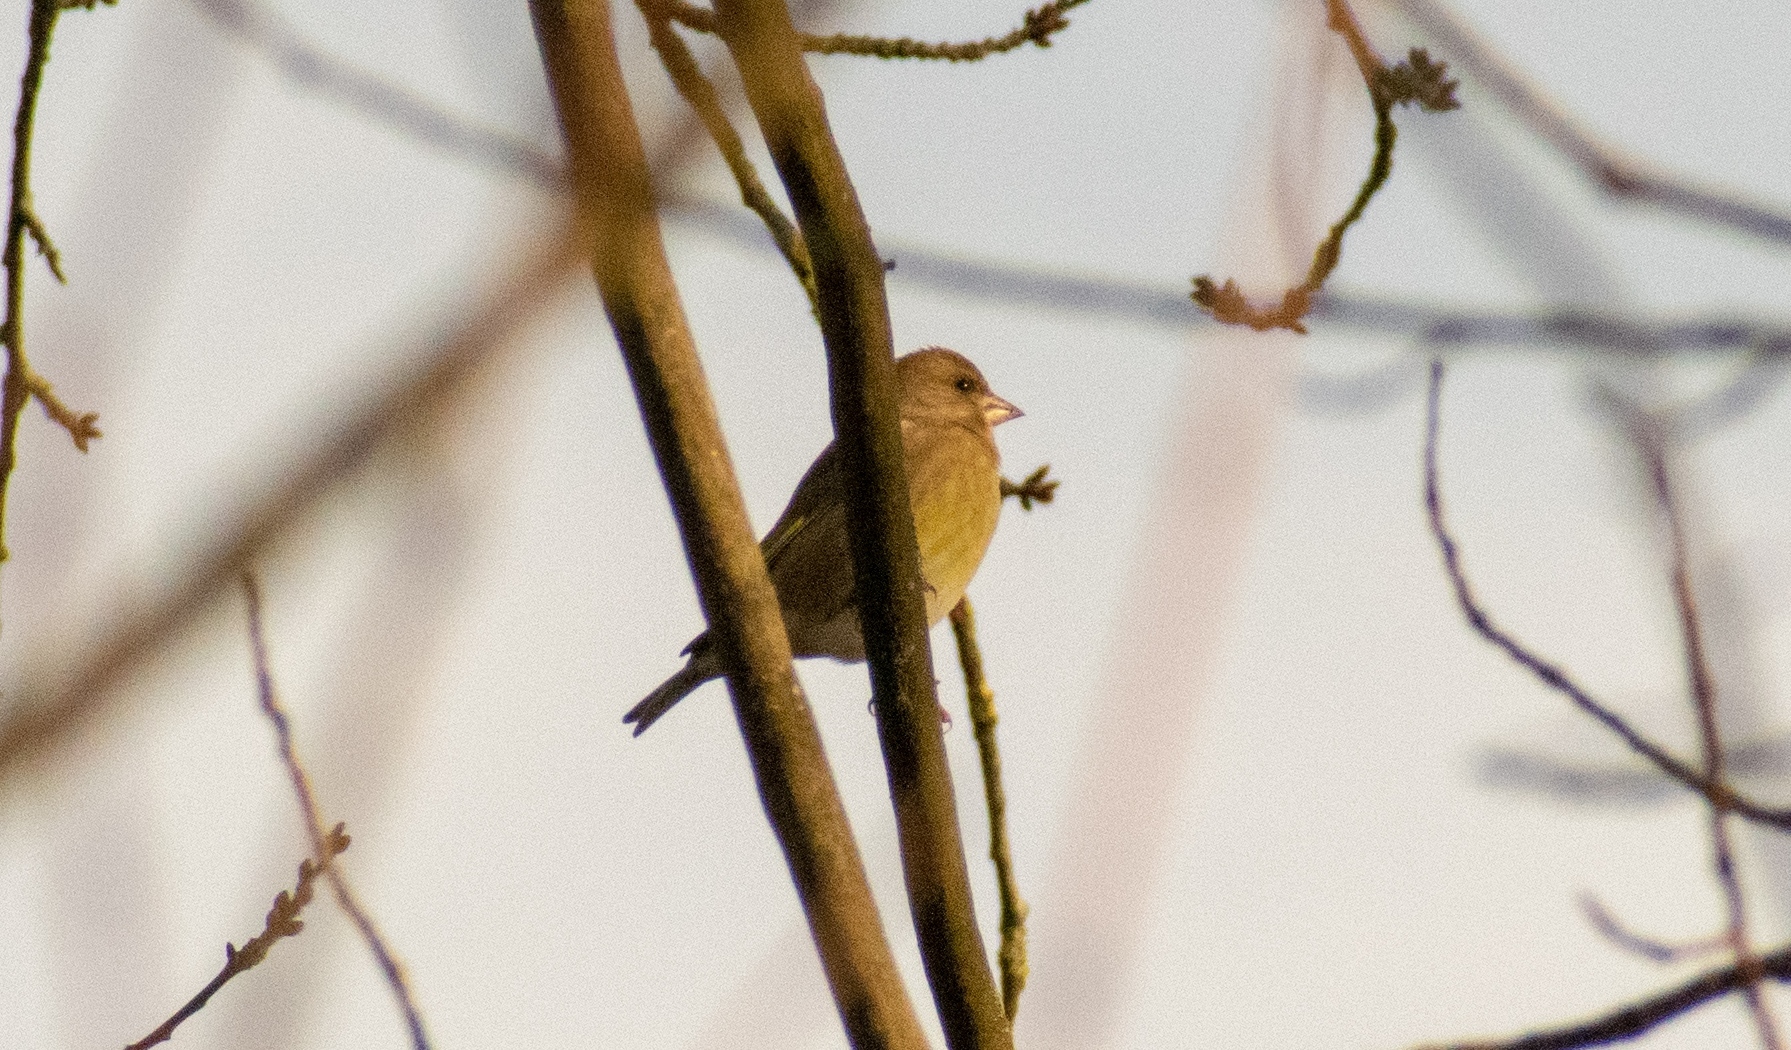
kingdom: Plantae
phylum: Tracheophyta
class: Liliopsida
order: Poales
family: Poaceae
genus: Chloris
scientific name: Chloris chloris
